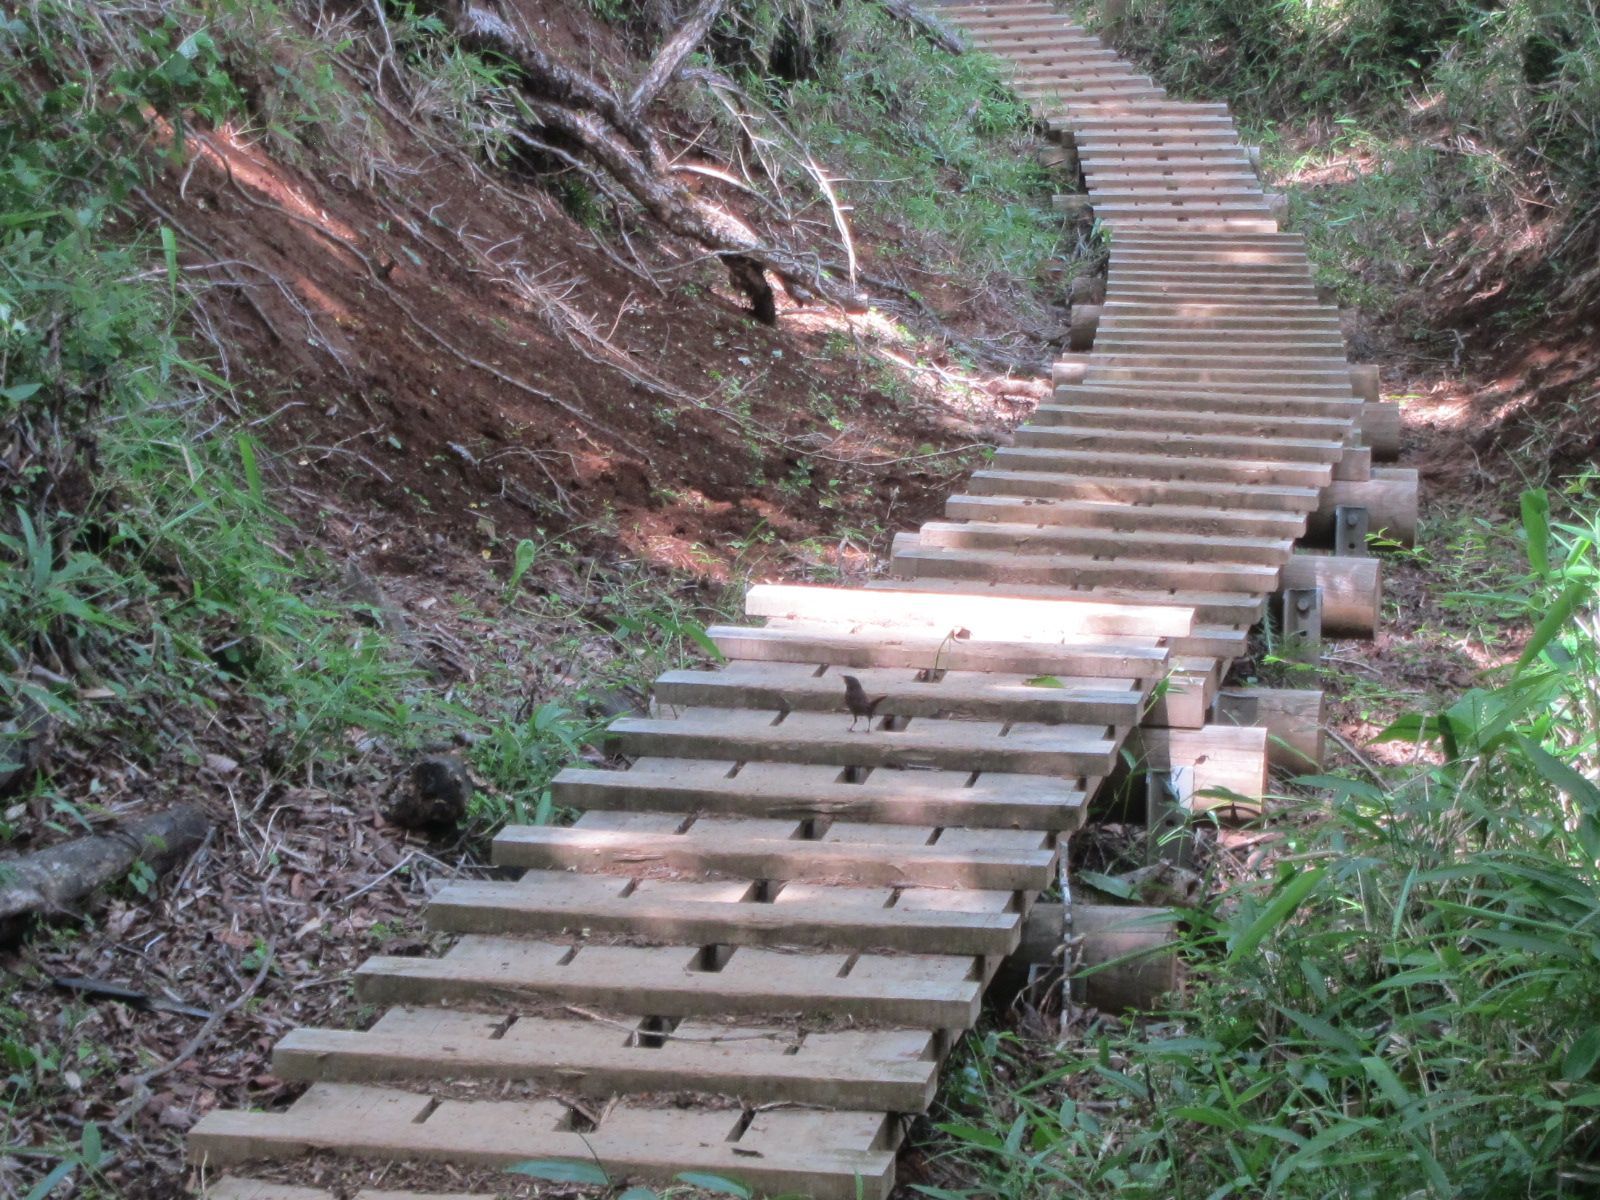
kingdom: Animalia
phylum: Chordata
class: Aves
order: Passeriformes
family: Muscicapidae
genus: Erithacus
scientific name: Erithacus akahige
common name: Japanese robin
